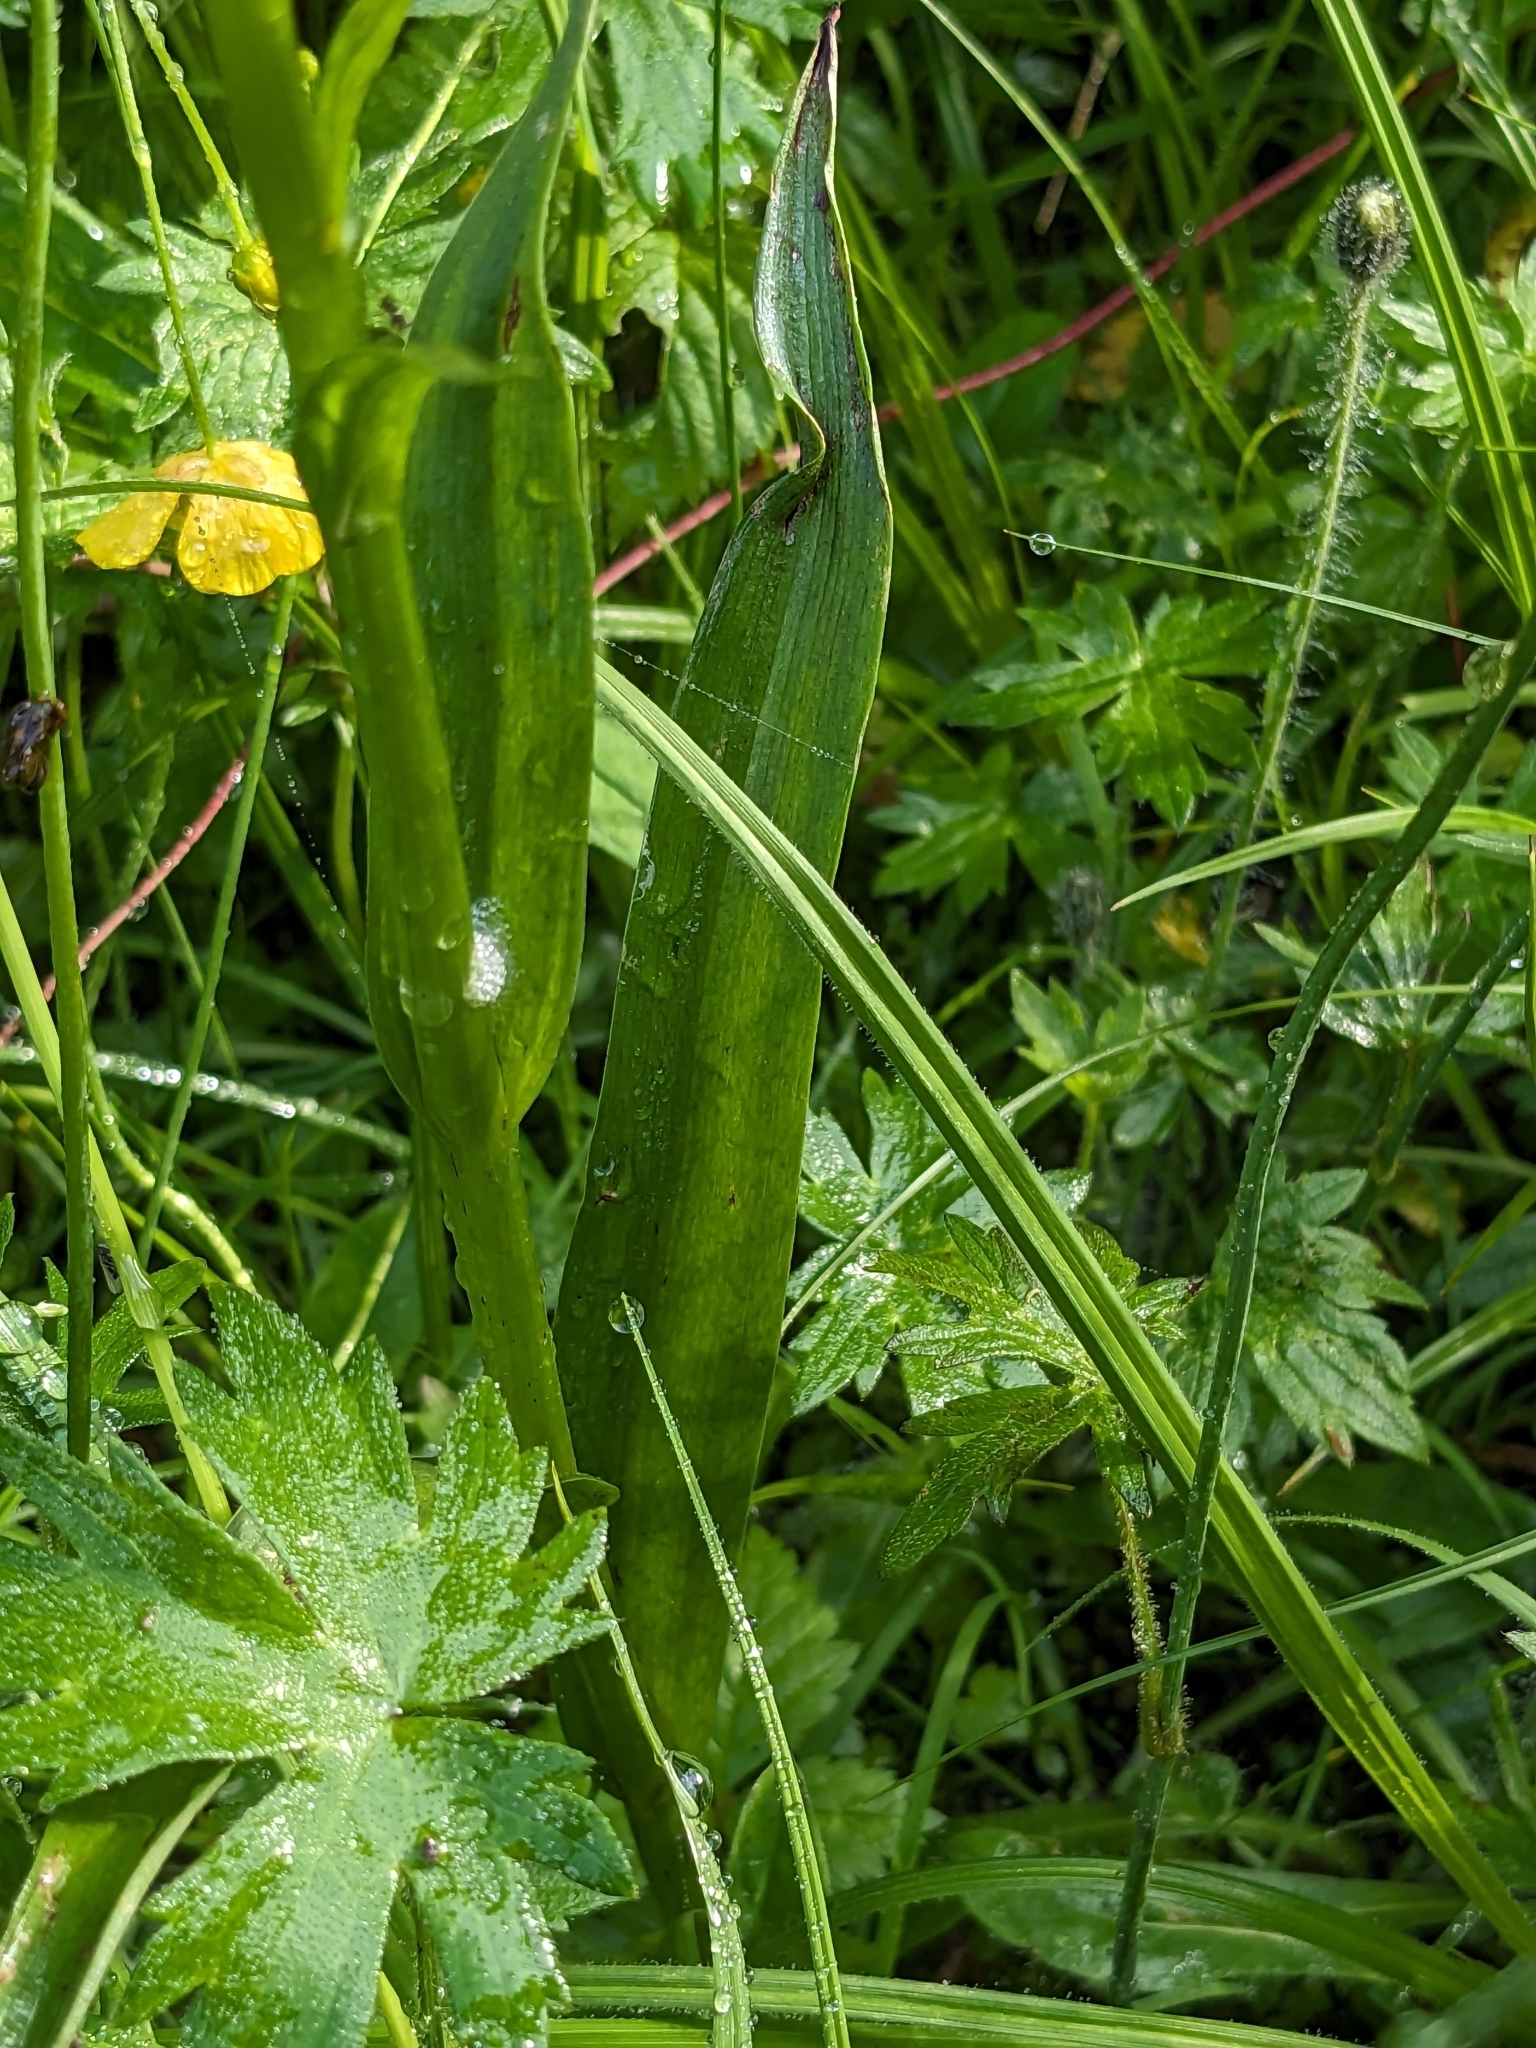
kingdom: Plantae
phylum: Tracheophyta
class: Liliopsida
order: Asparagales
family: Orchidaceae
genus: Platanthera
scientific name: Platanthera dilatata
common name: Bog candles
